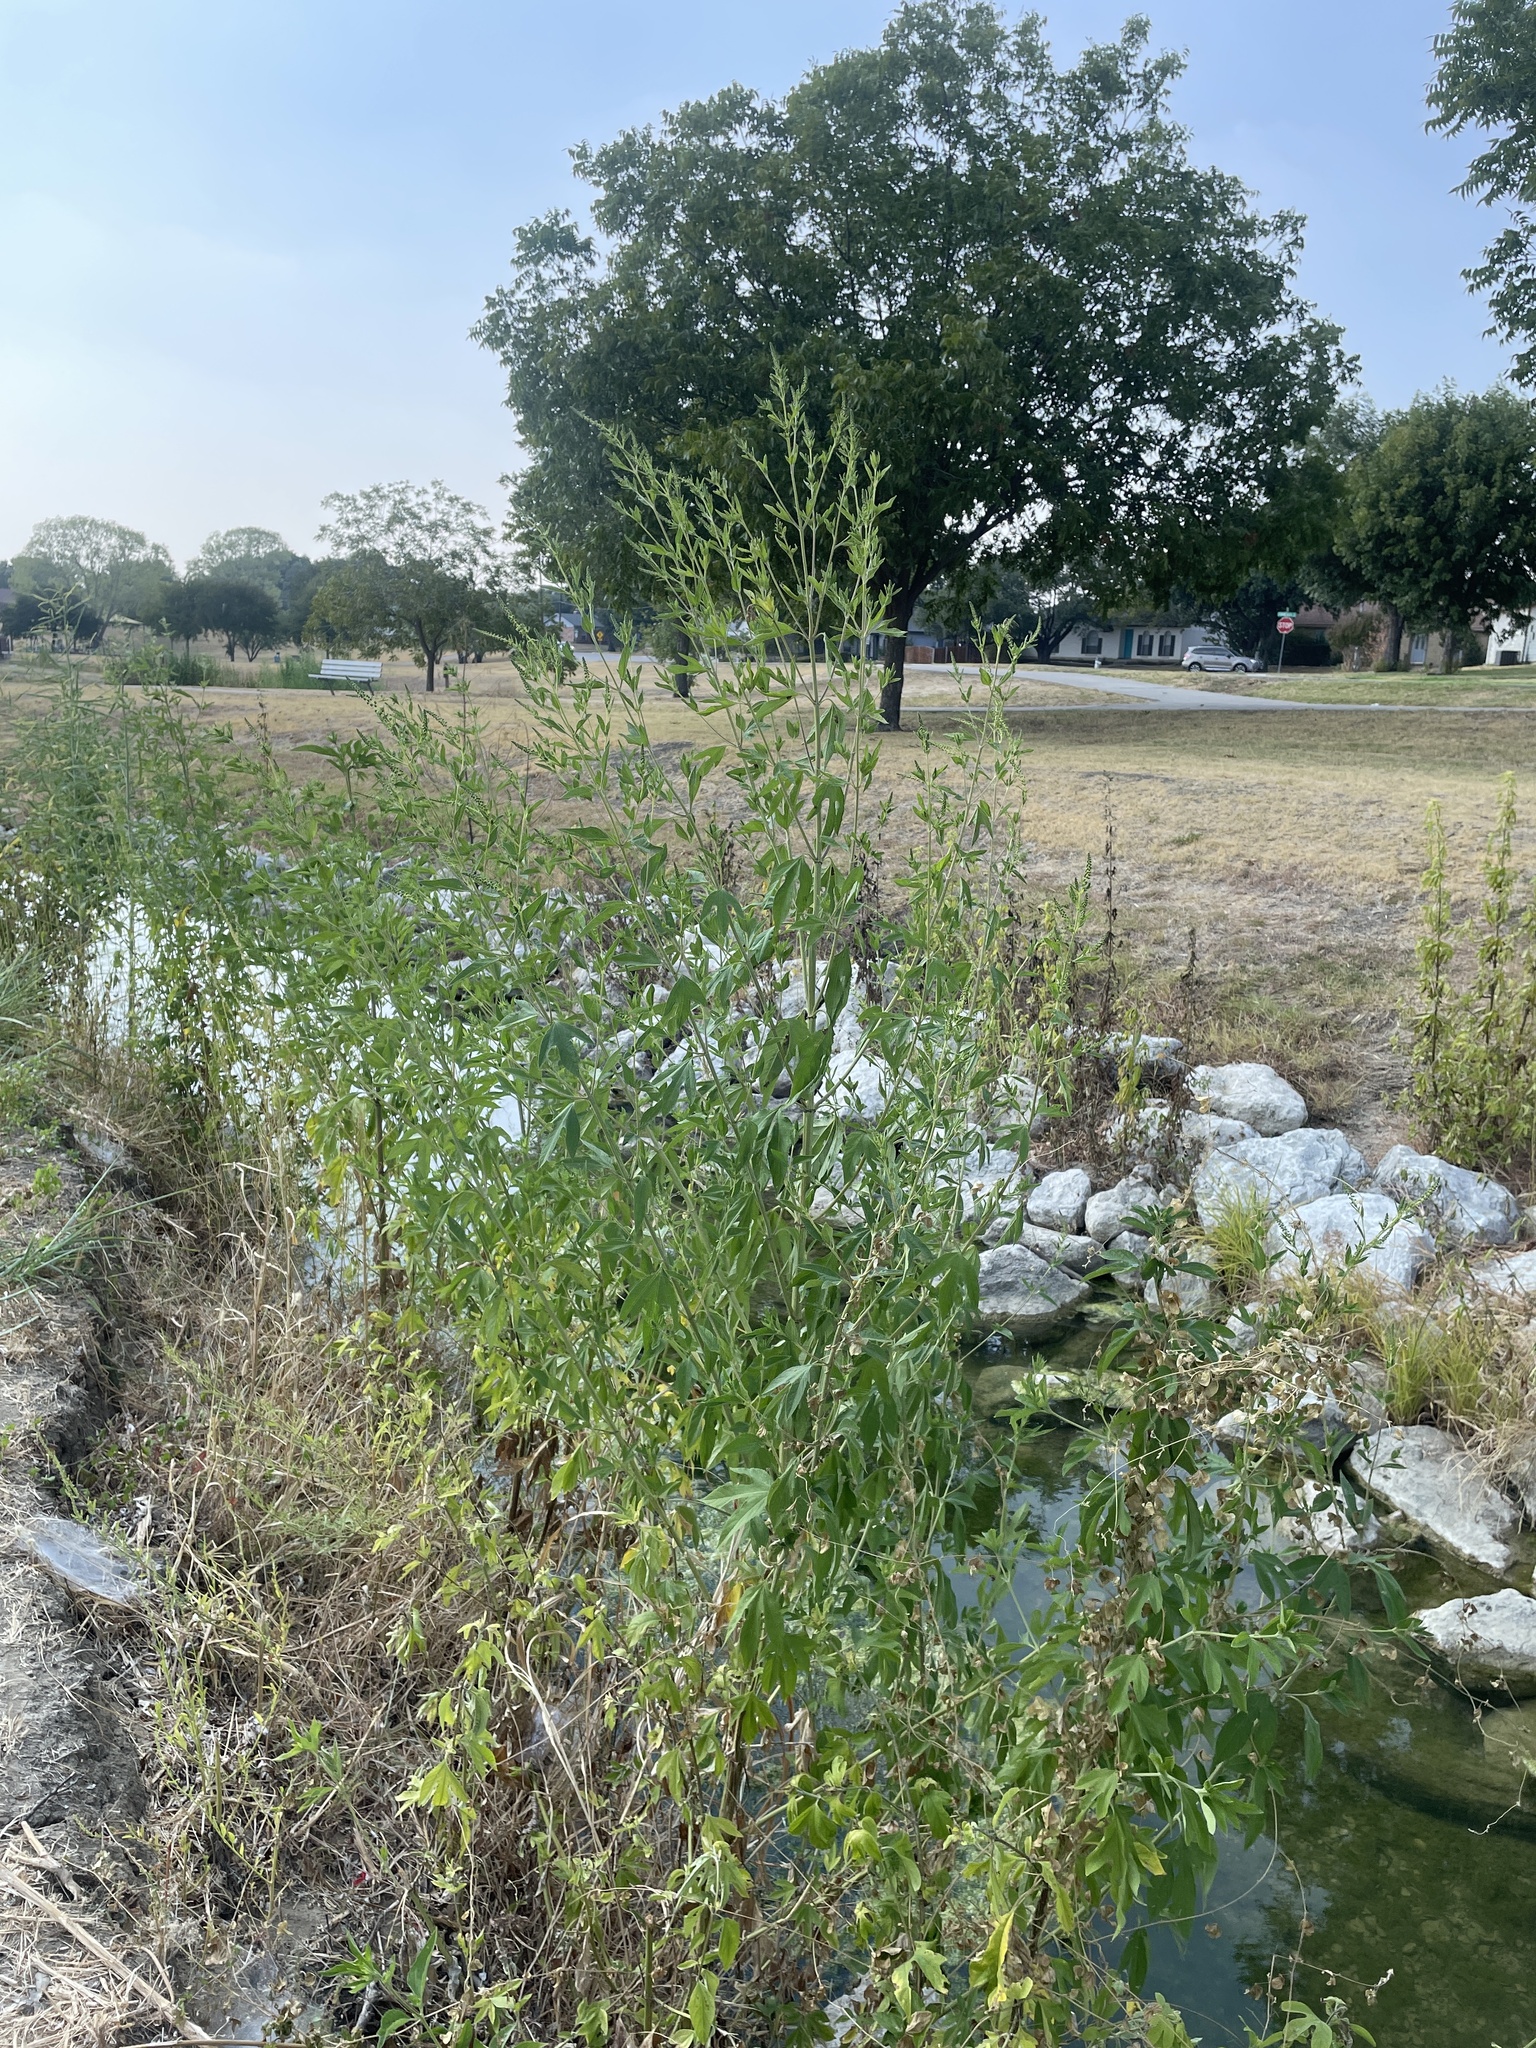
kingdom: Plantae
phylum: Tracheophyta
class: Magnoliopsida
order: Asterales
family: Asteraceae
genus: Ambrosia
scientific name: Ambrosia trifida
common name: Giant ragweed
